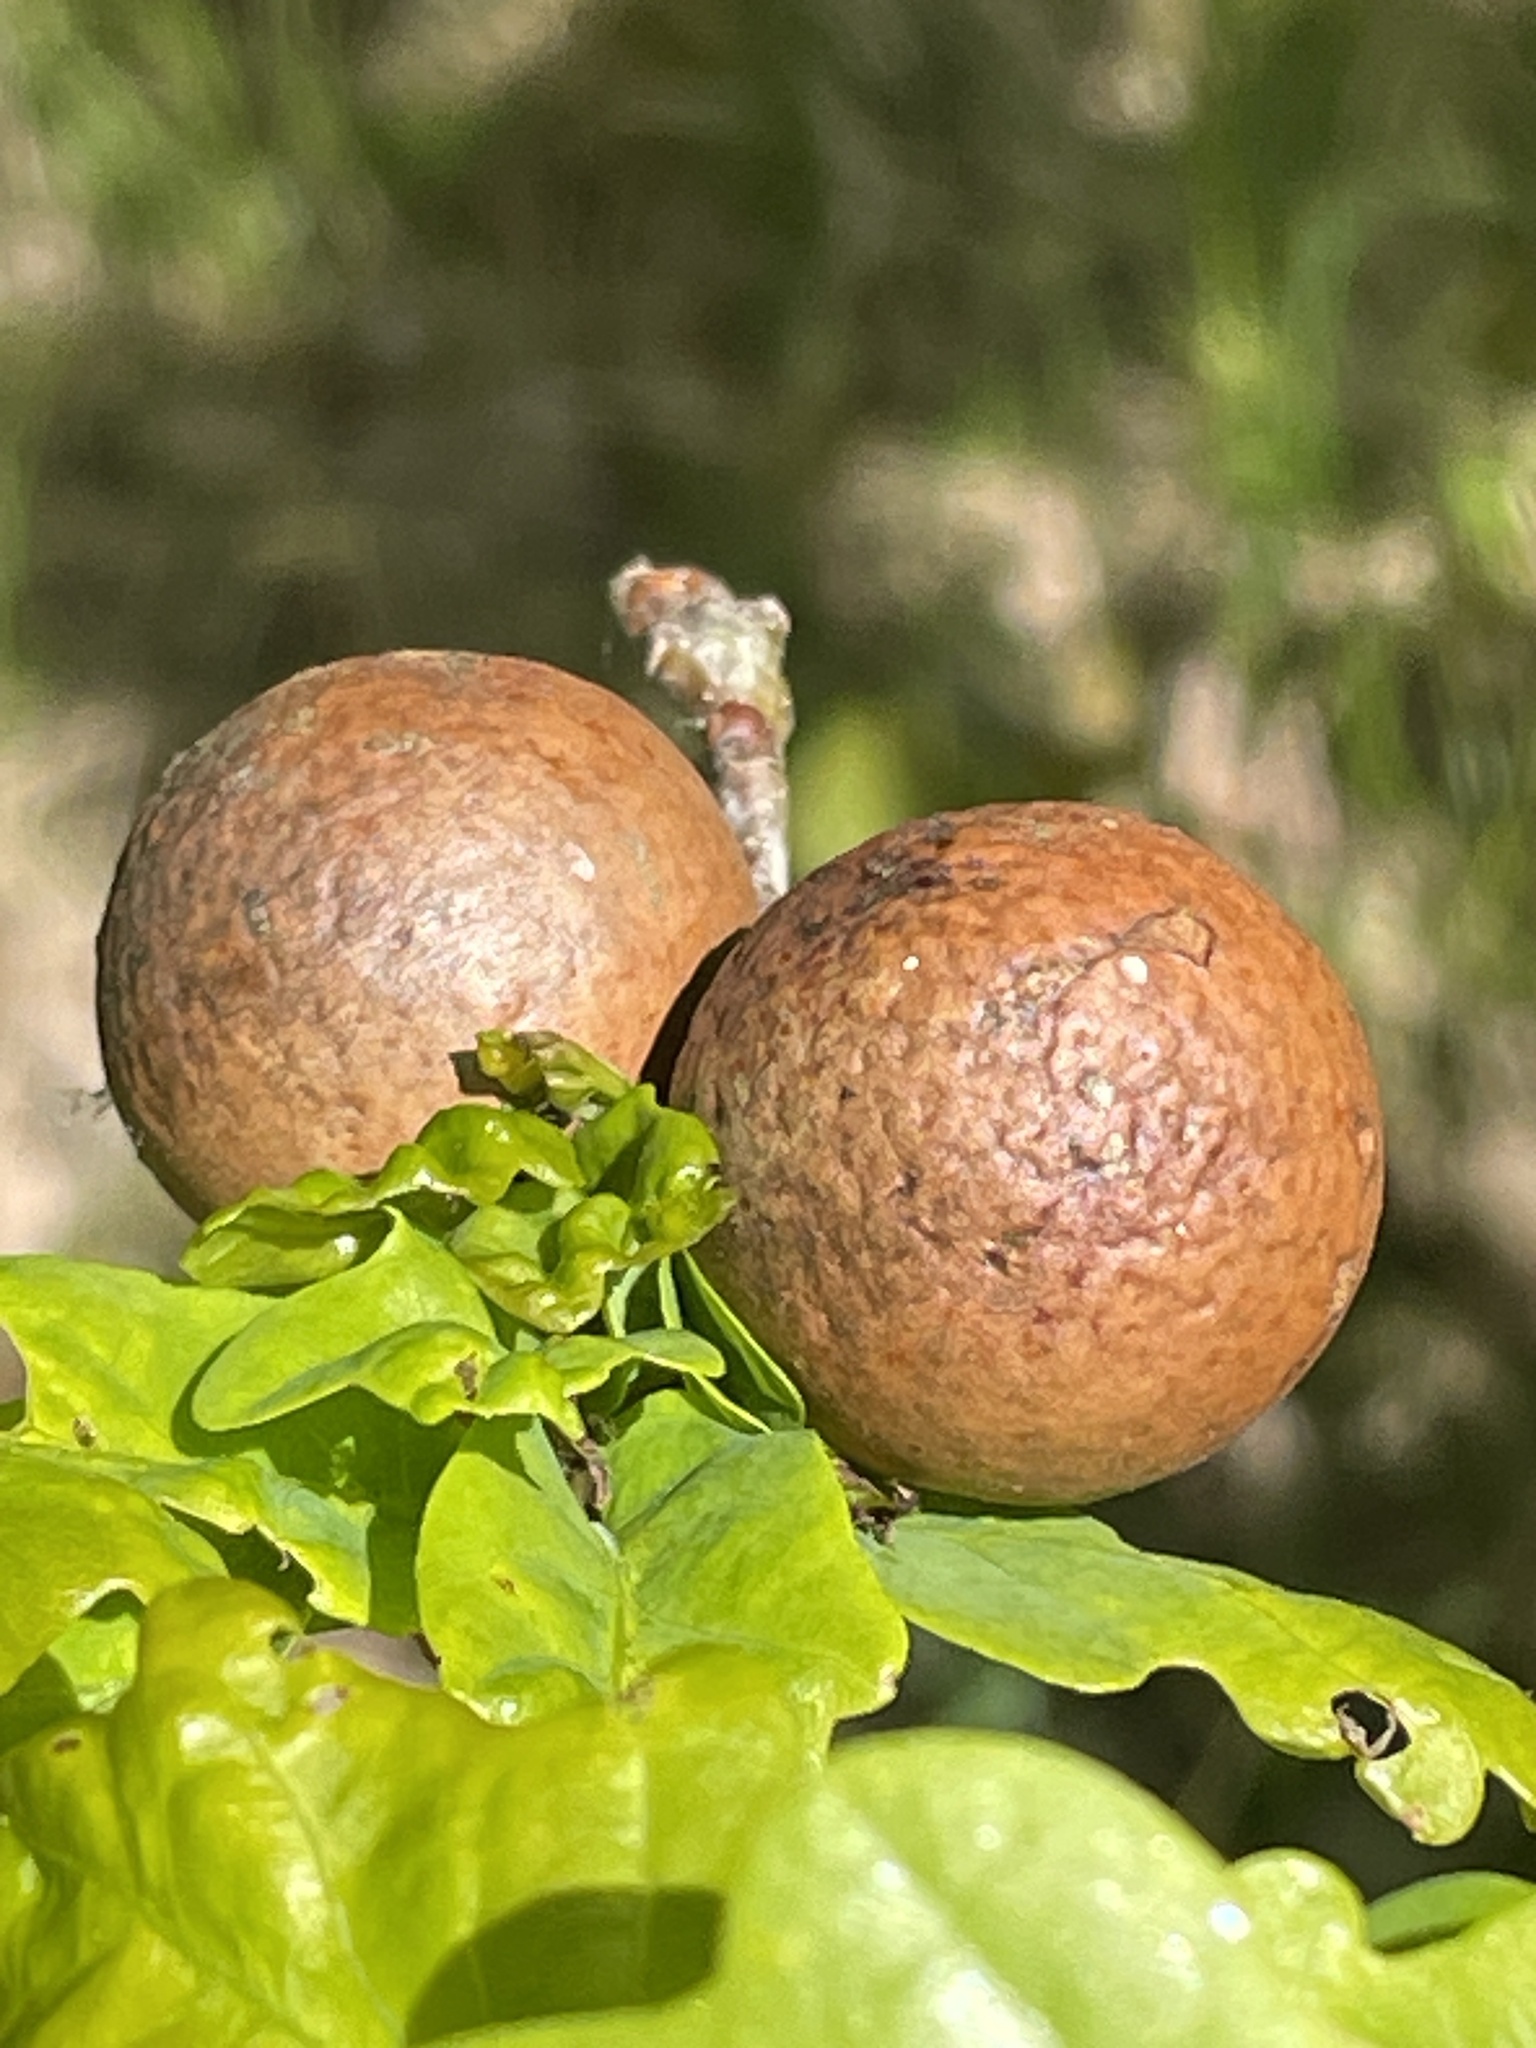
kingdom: Animalia
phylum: Arthropoda
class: Insecta
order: Hymenoptera
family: Cynipidae
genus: Andricus
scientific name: Andricus kollari
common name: Marble gall
